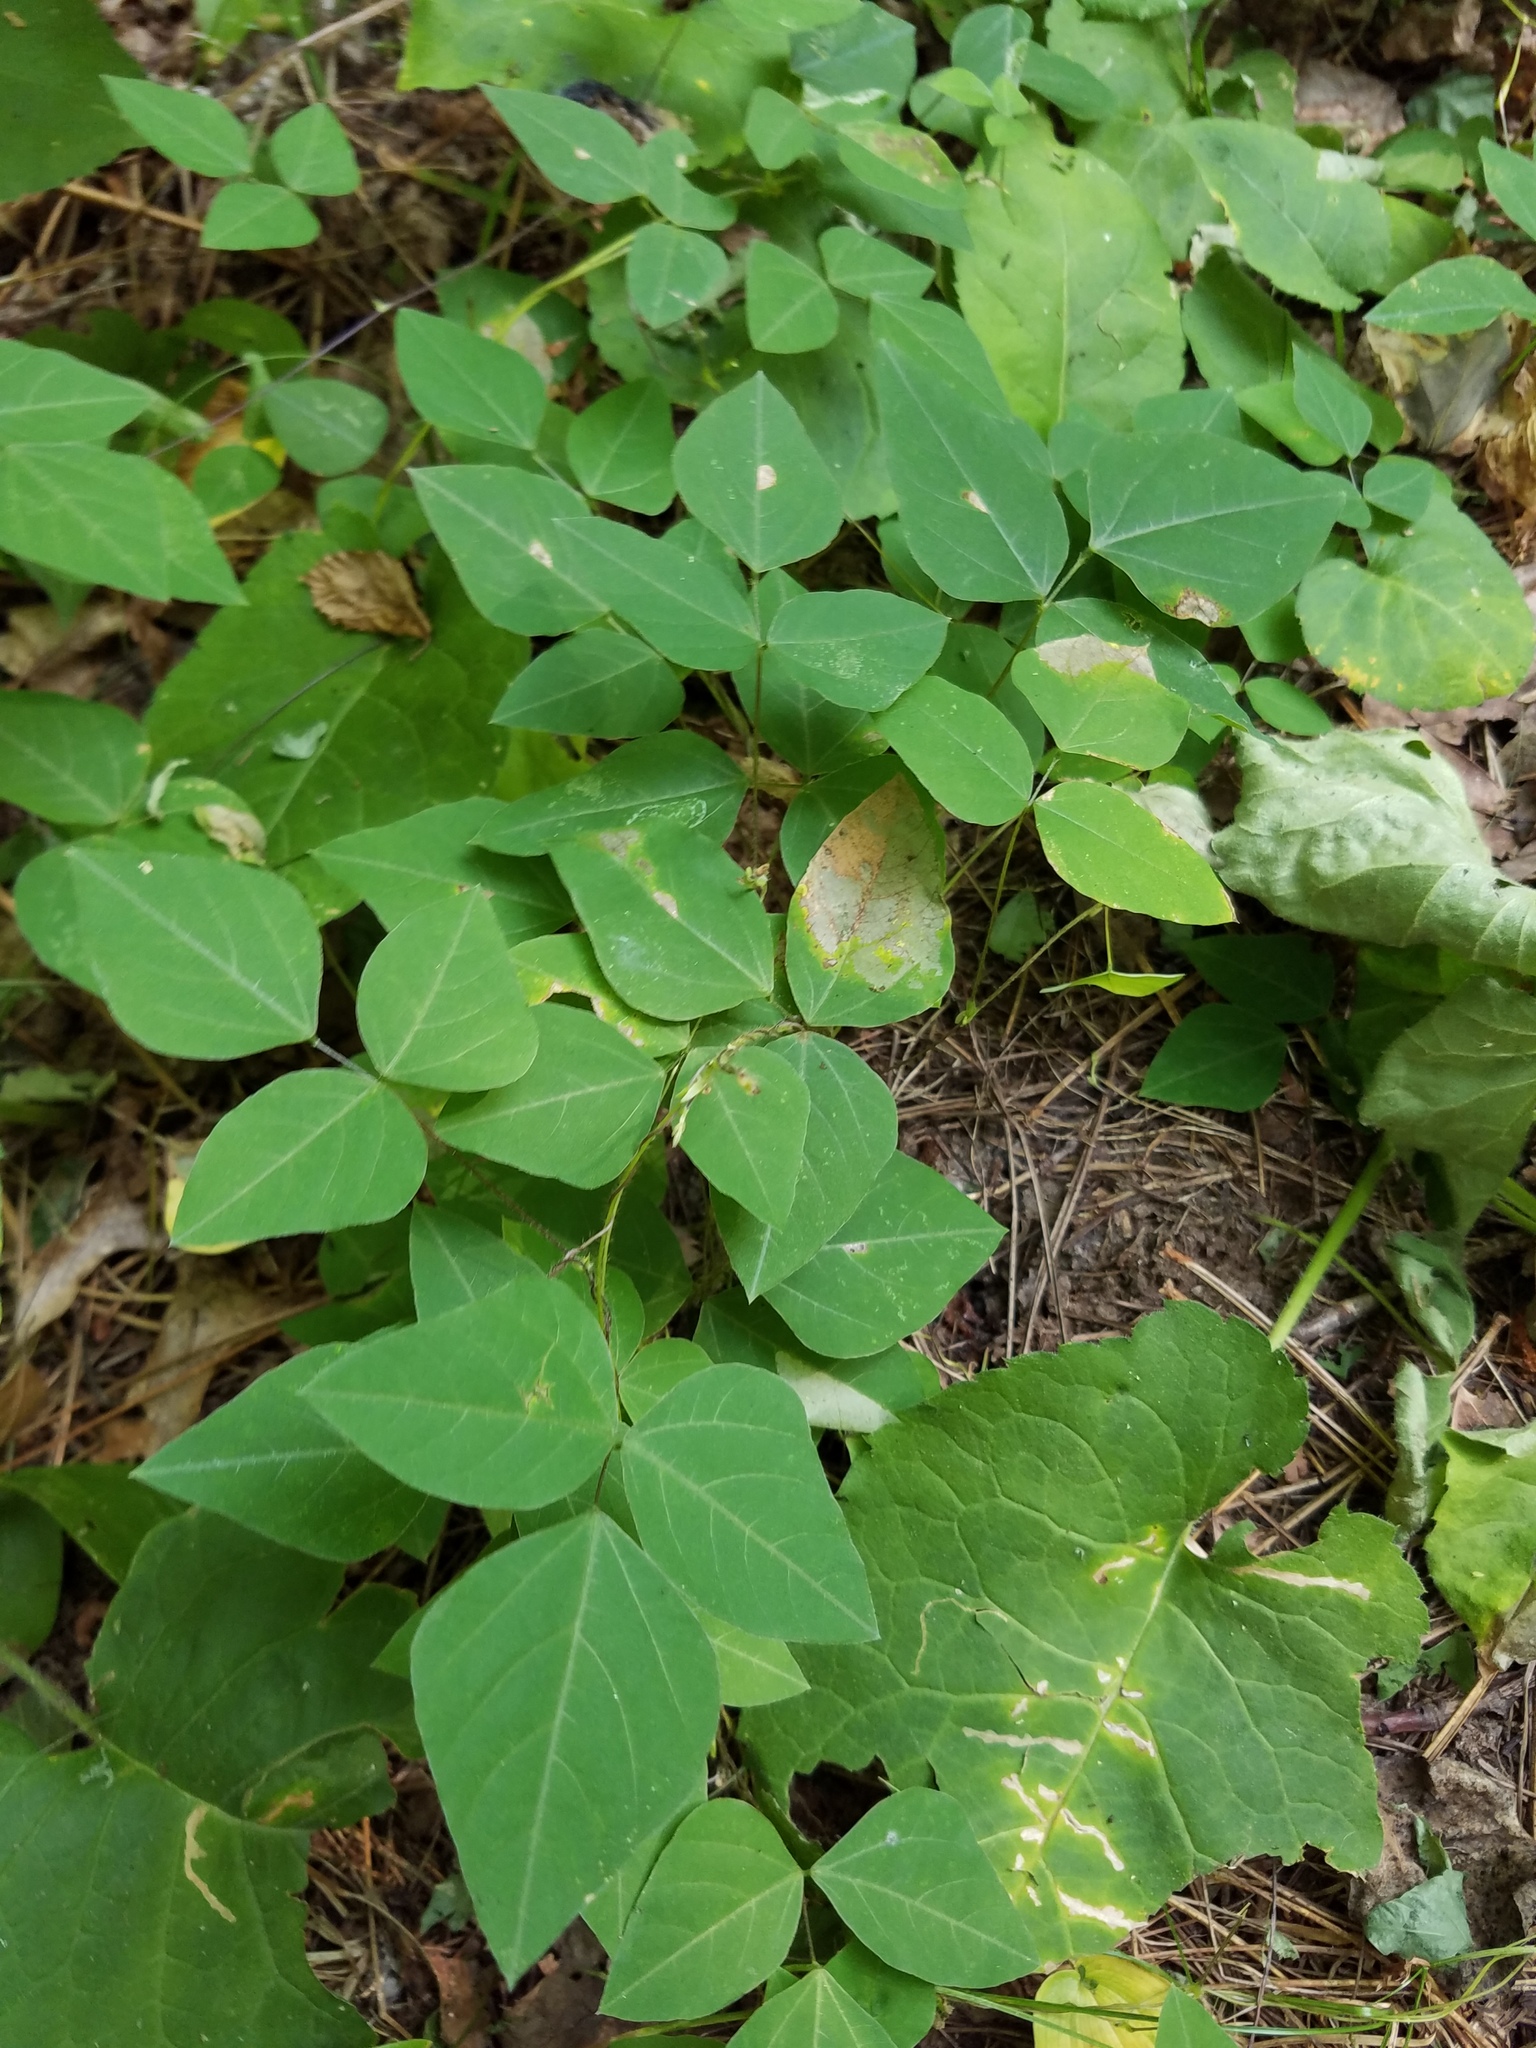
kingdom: Plantae
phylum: Tracheophyta
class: Magnoliopsida
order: Fabales
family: Fabaceae
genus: Amphicarpaea
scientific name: Amphicarpaea bracteata
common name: American hog peanut
